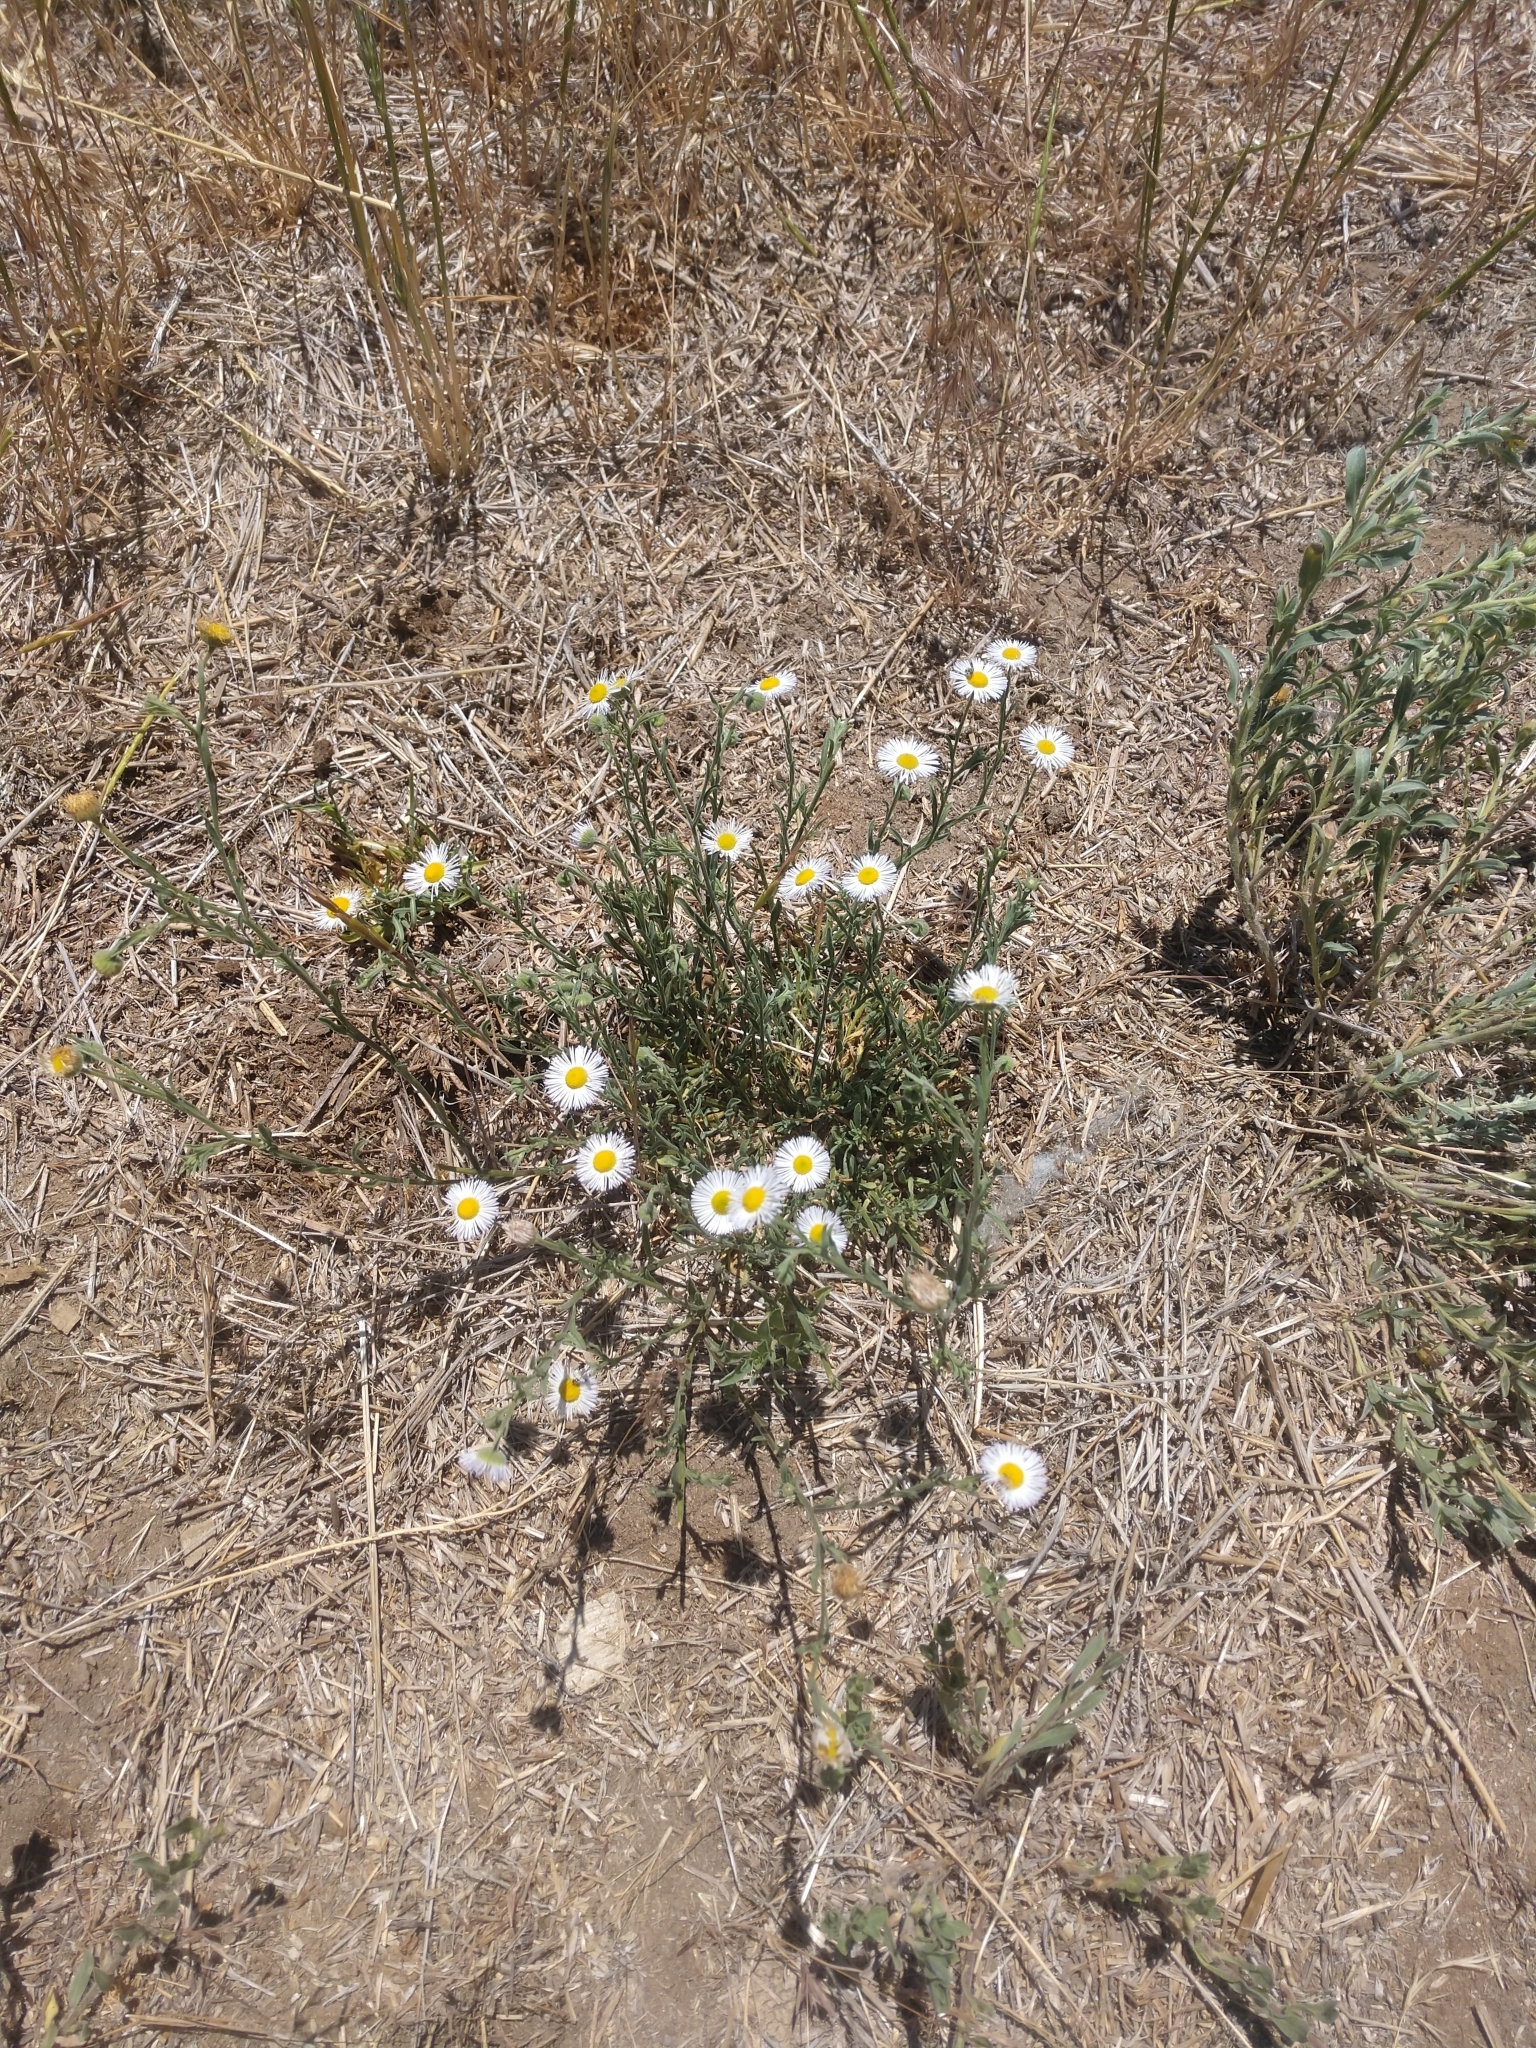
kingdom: Plantae
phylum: Tracheophyta
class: Magnoliopsida
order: Asterales
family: Asteraceae
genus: Erigeron
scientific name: Erigeron divergens
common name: Diffuse fleabane
